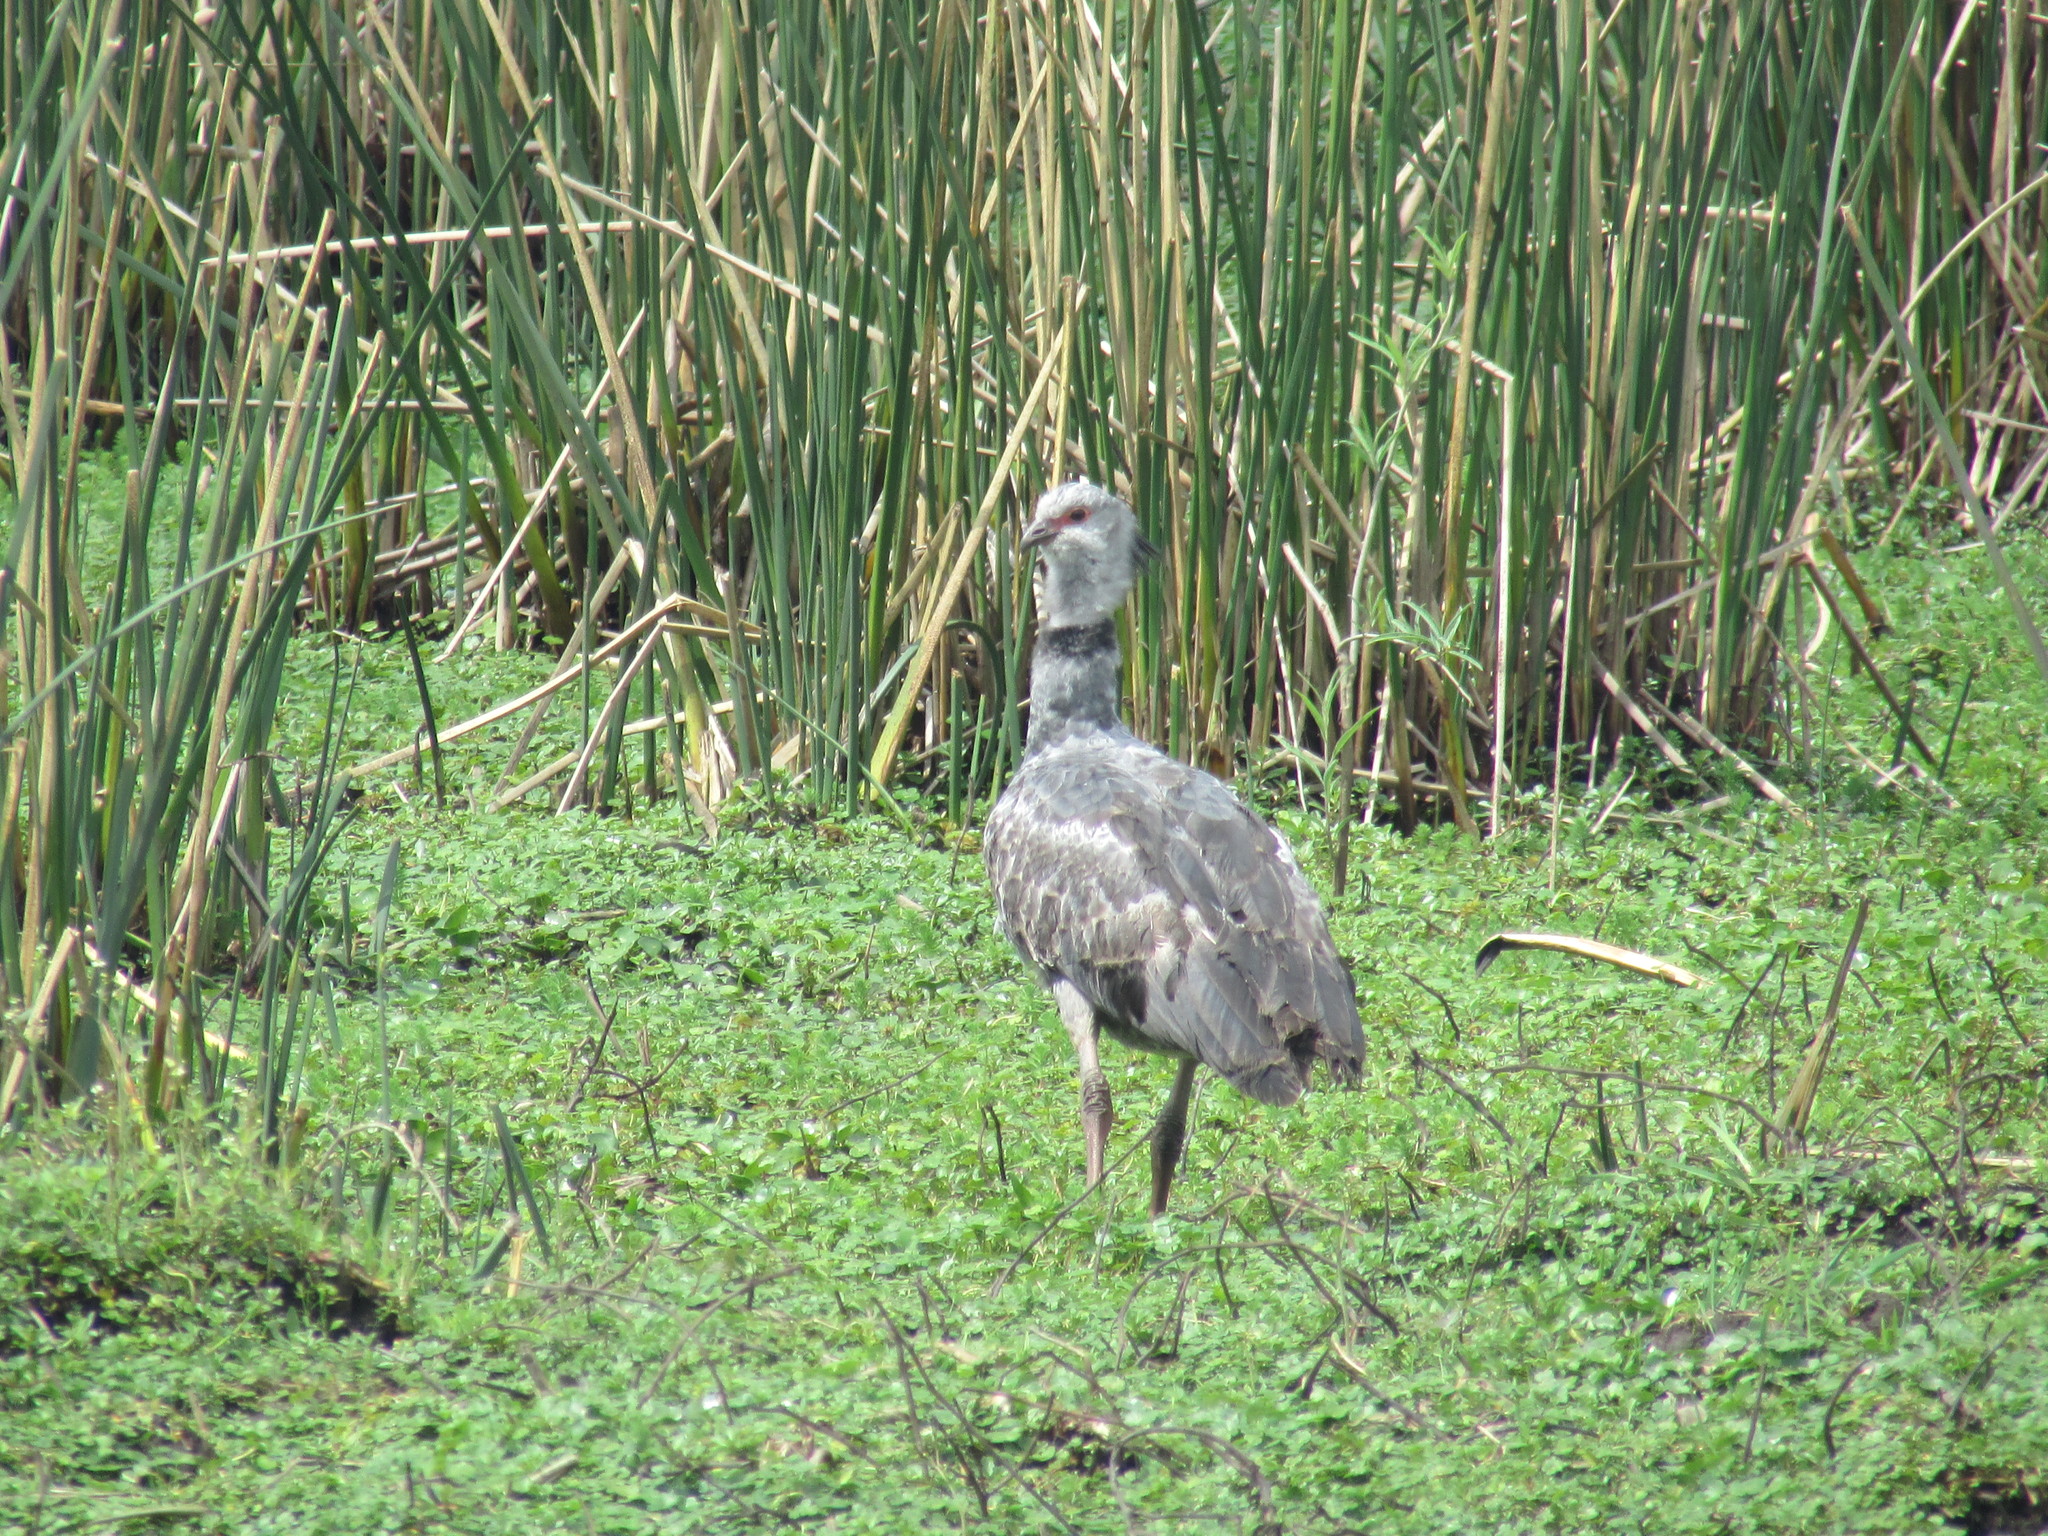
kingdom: Animalia
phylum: Chordata
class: Aves
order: Anseriformes
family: Anhimidae
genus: Chauna
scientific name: Chauna torquata
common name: Southern screamer
